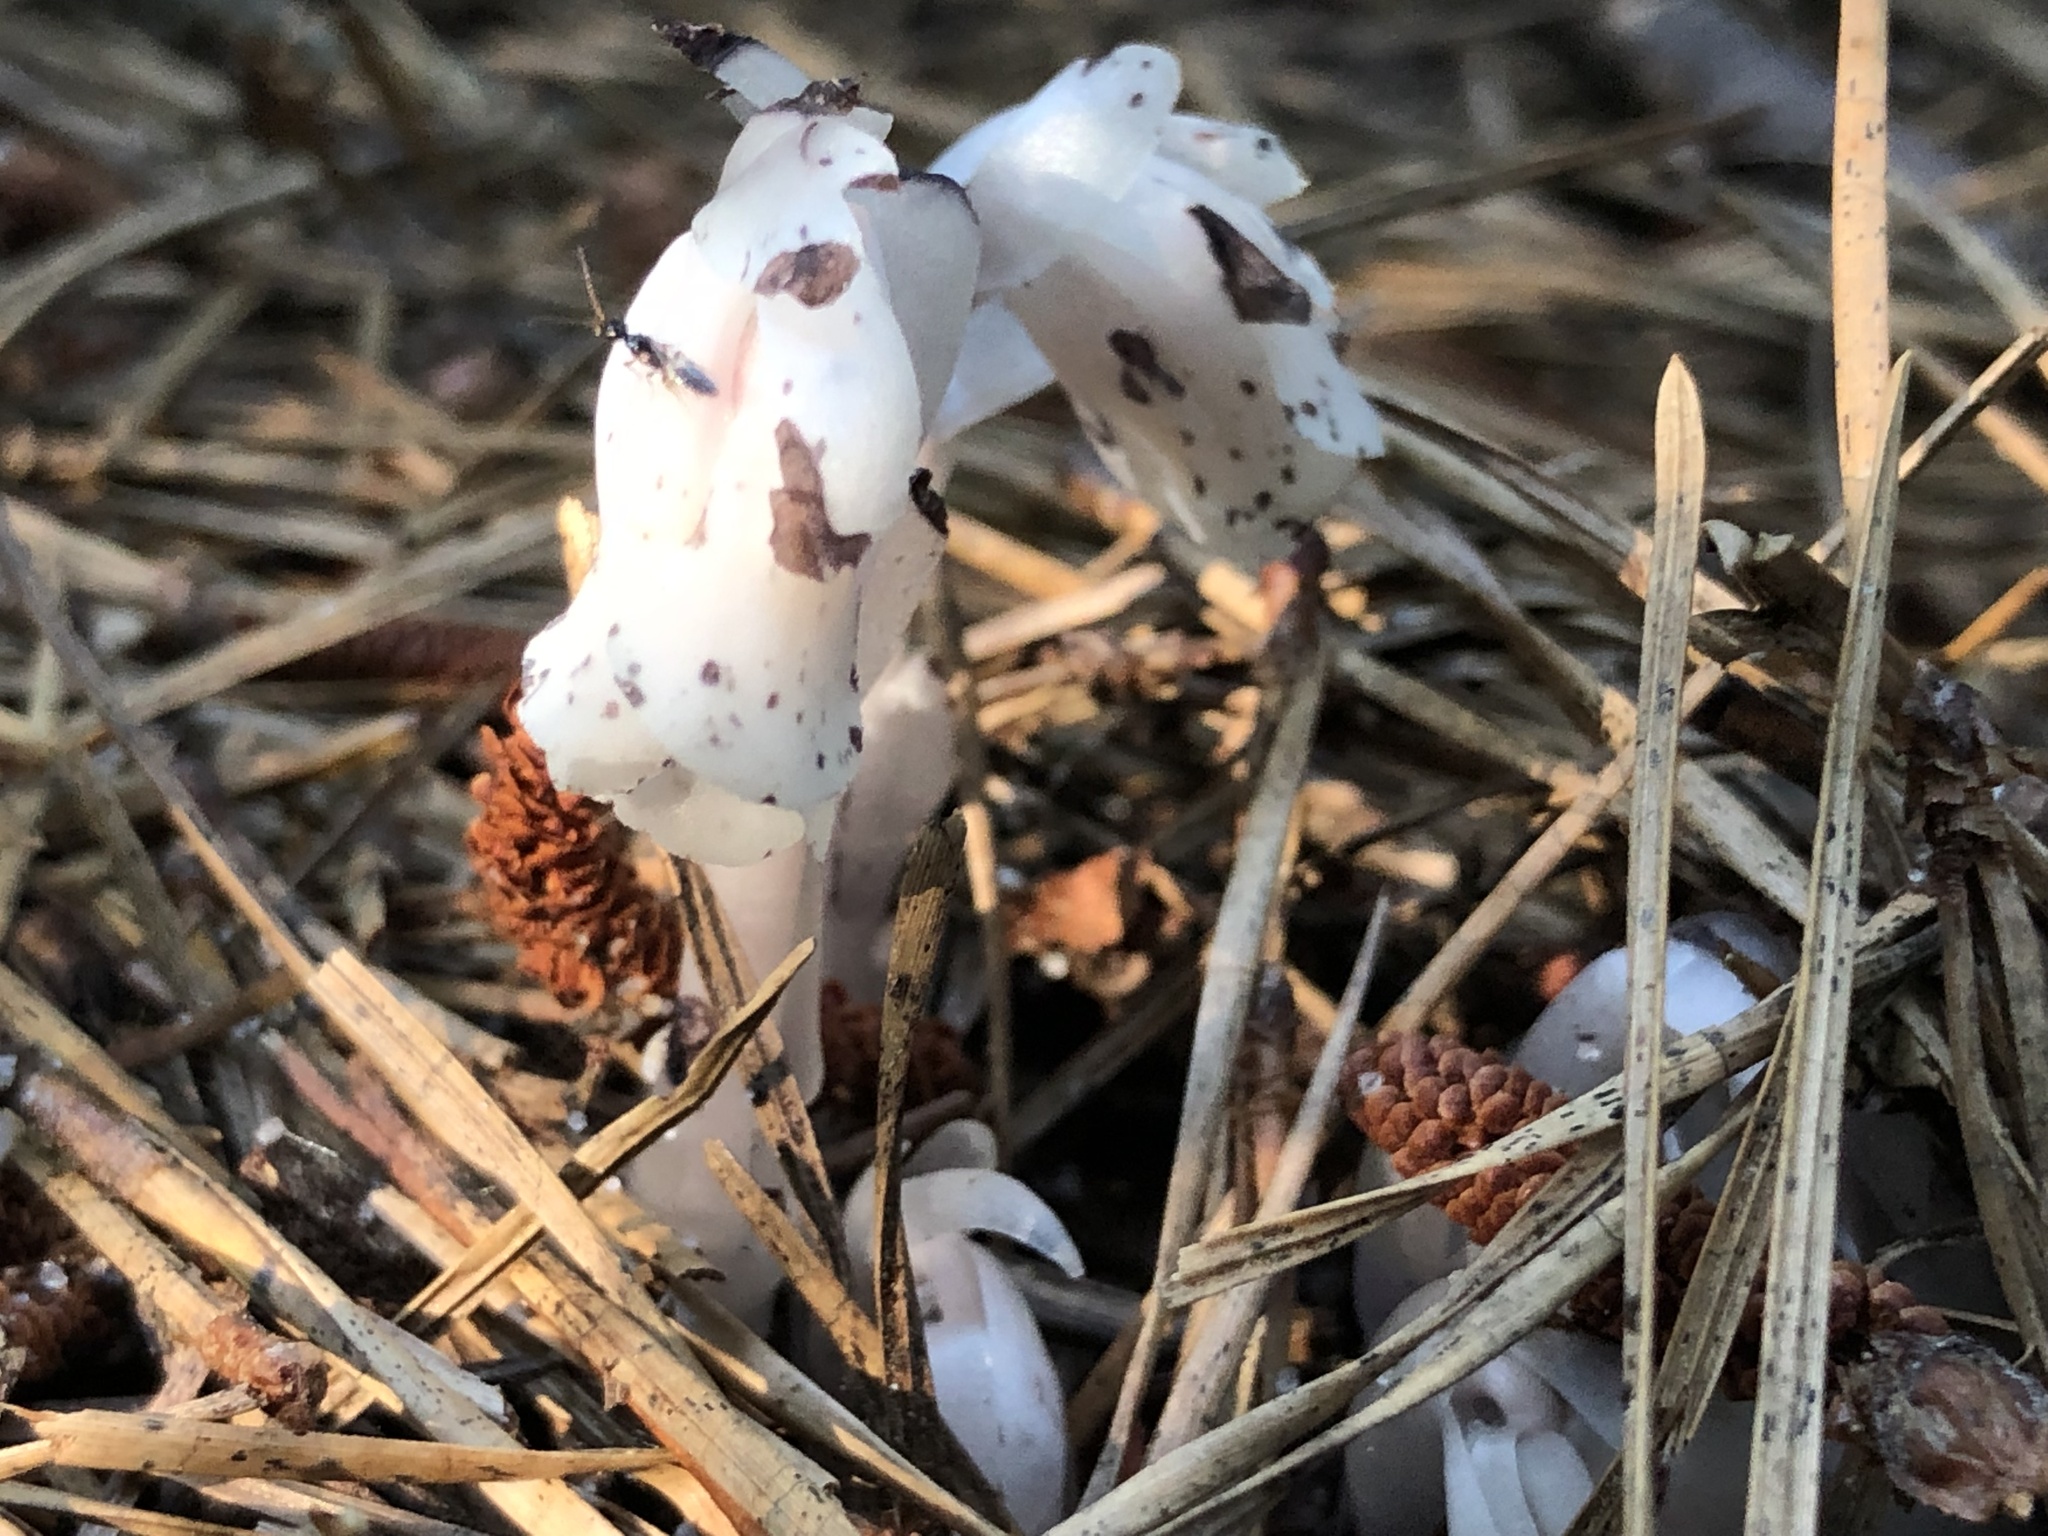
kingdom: Plantae
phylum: Tracheophyta
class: Magnoliopsida
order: Ericales
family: Ericaceae
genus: Monotropa
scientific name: Monotropa uniflora
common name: Convulsion root
